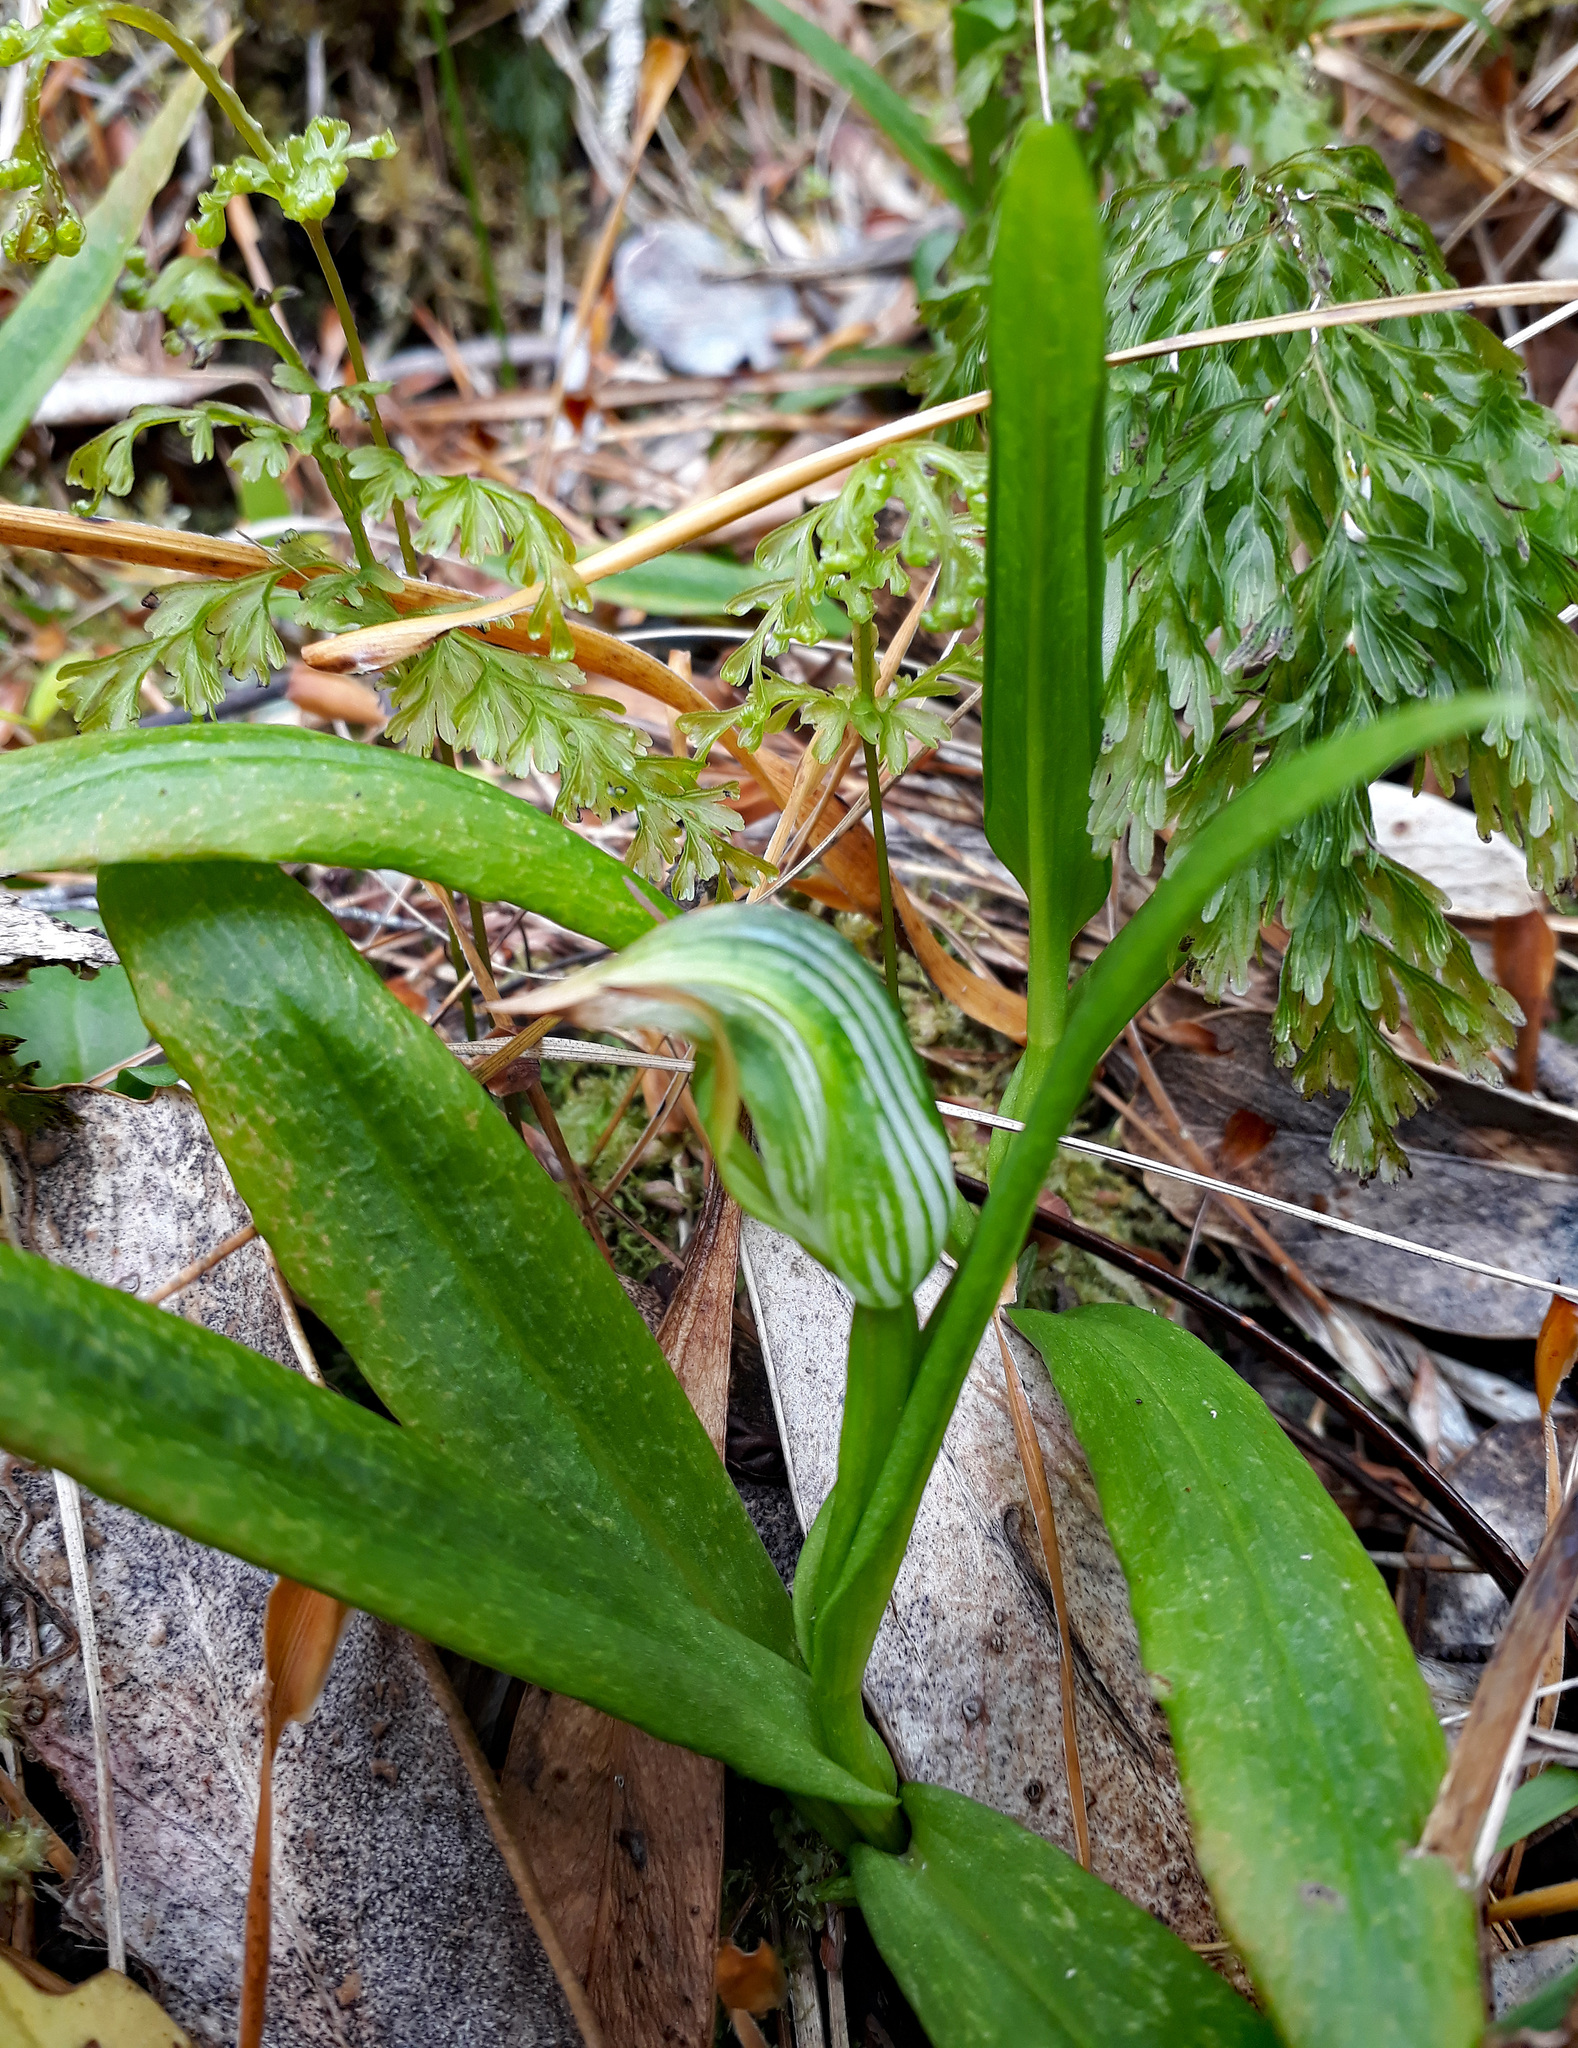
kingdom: Plantae
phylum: Tracheophyta
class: Liliopsida
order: Asparagales
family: Orchidaceae
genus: Pterostylis
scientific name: Pterostylis silvicultrix
